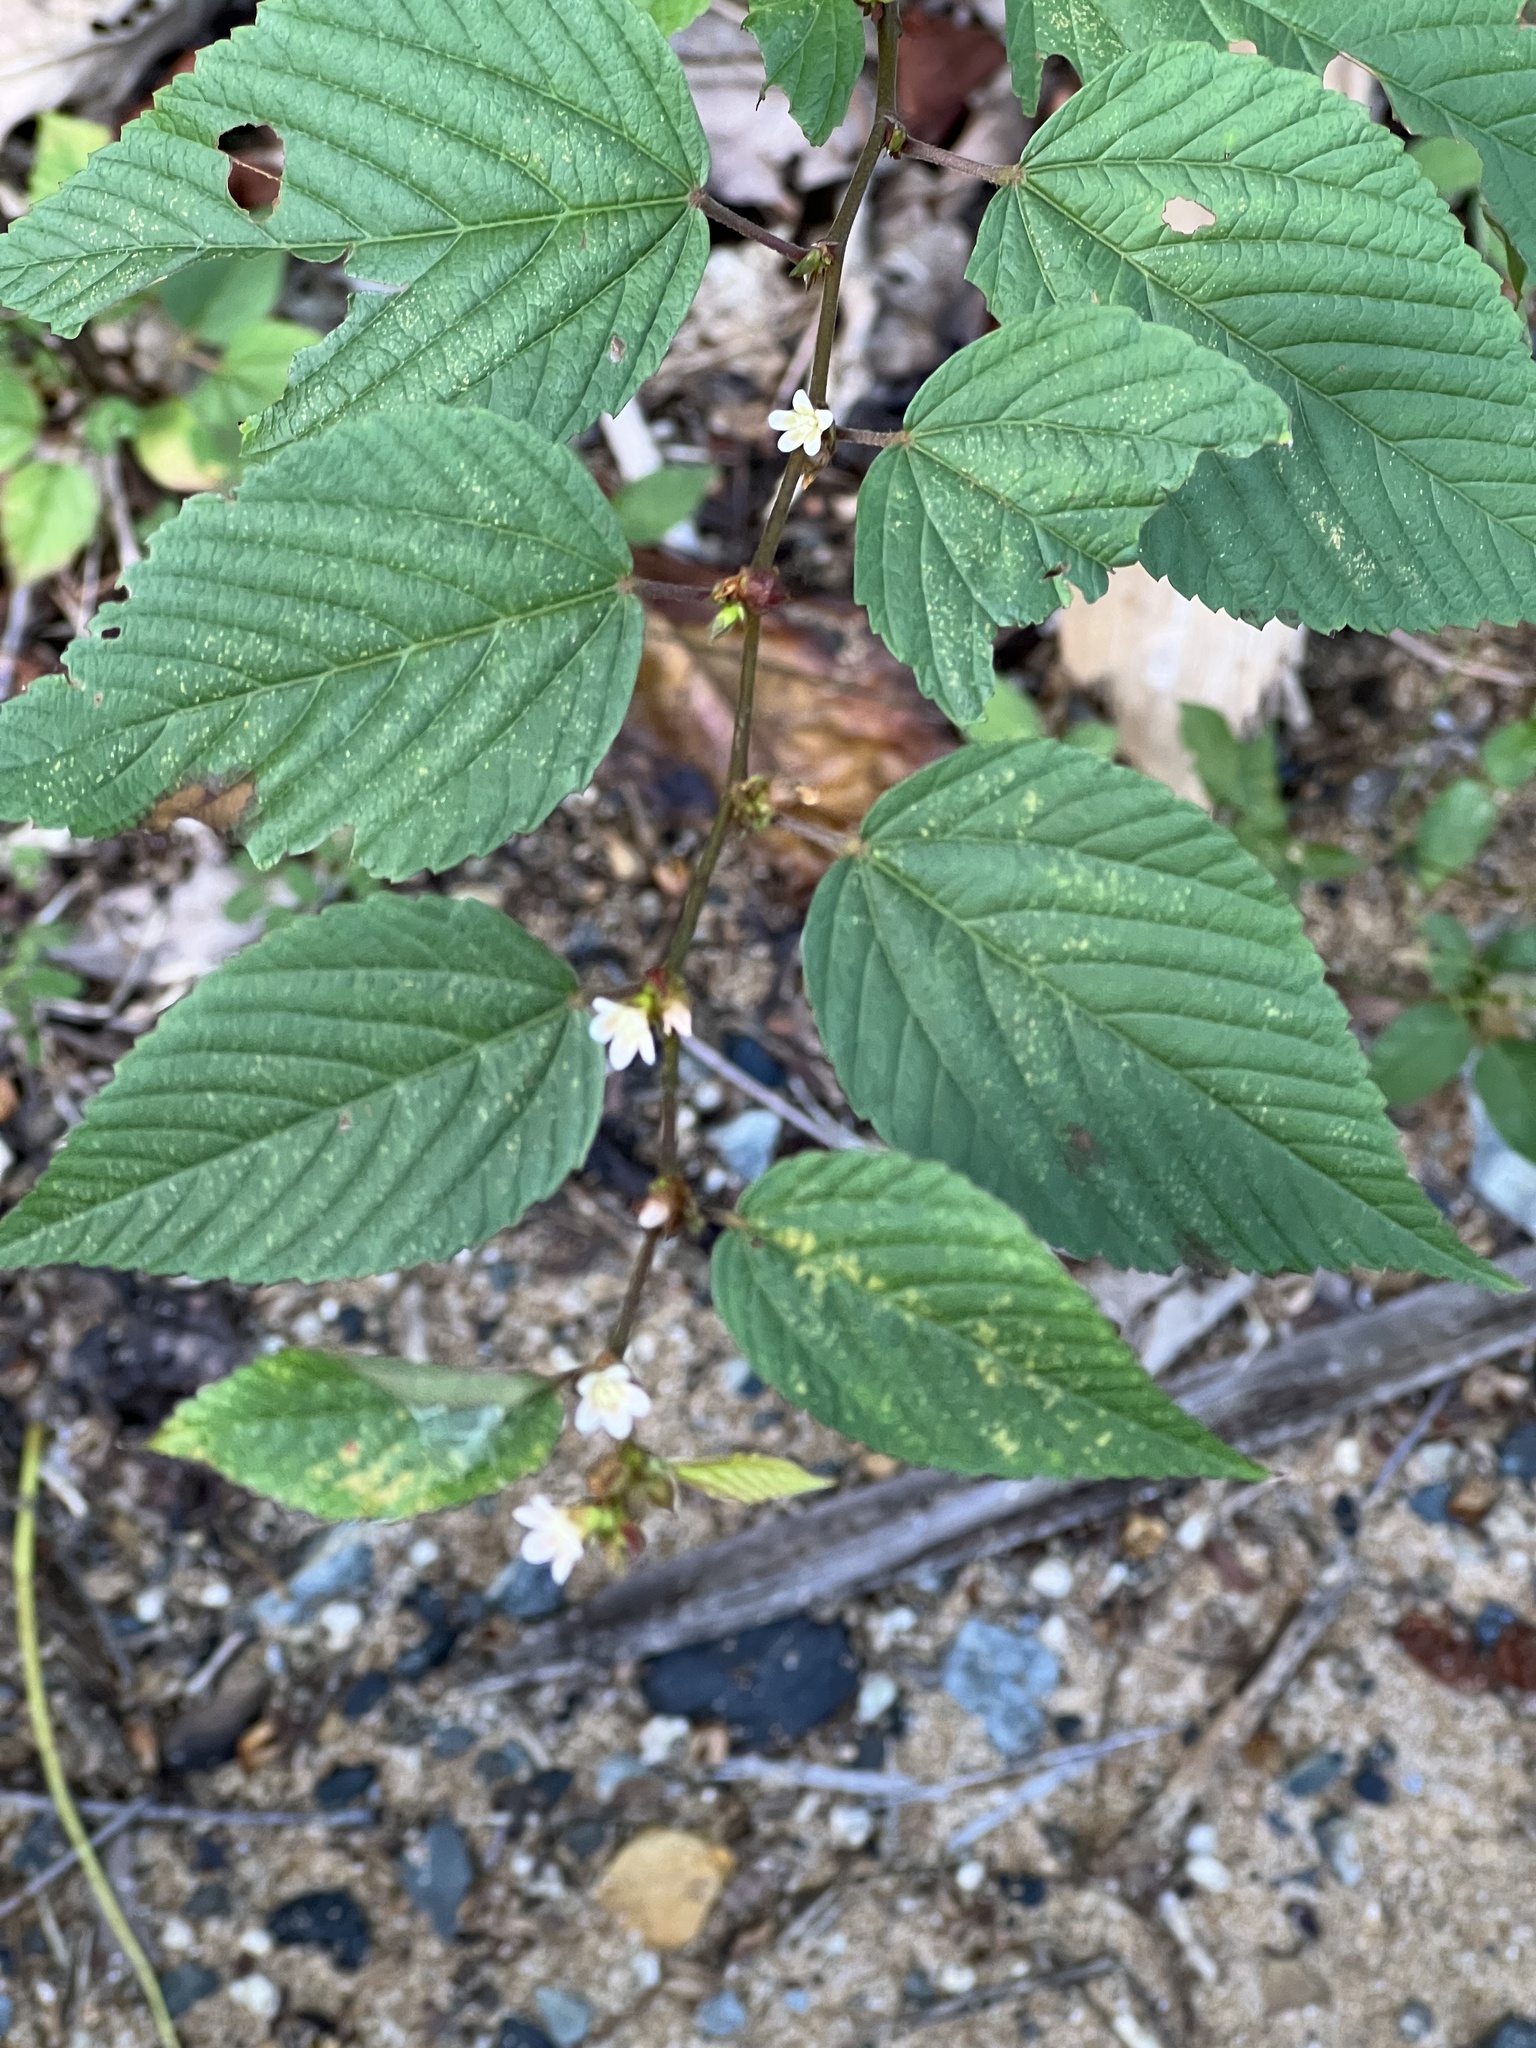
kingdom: Plantae
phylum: Tracheophyta
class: Magnoliopsida
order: Malvales
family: Malvaceae
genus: Melochia
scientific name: Melochia nodiflora
